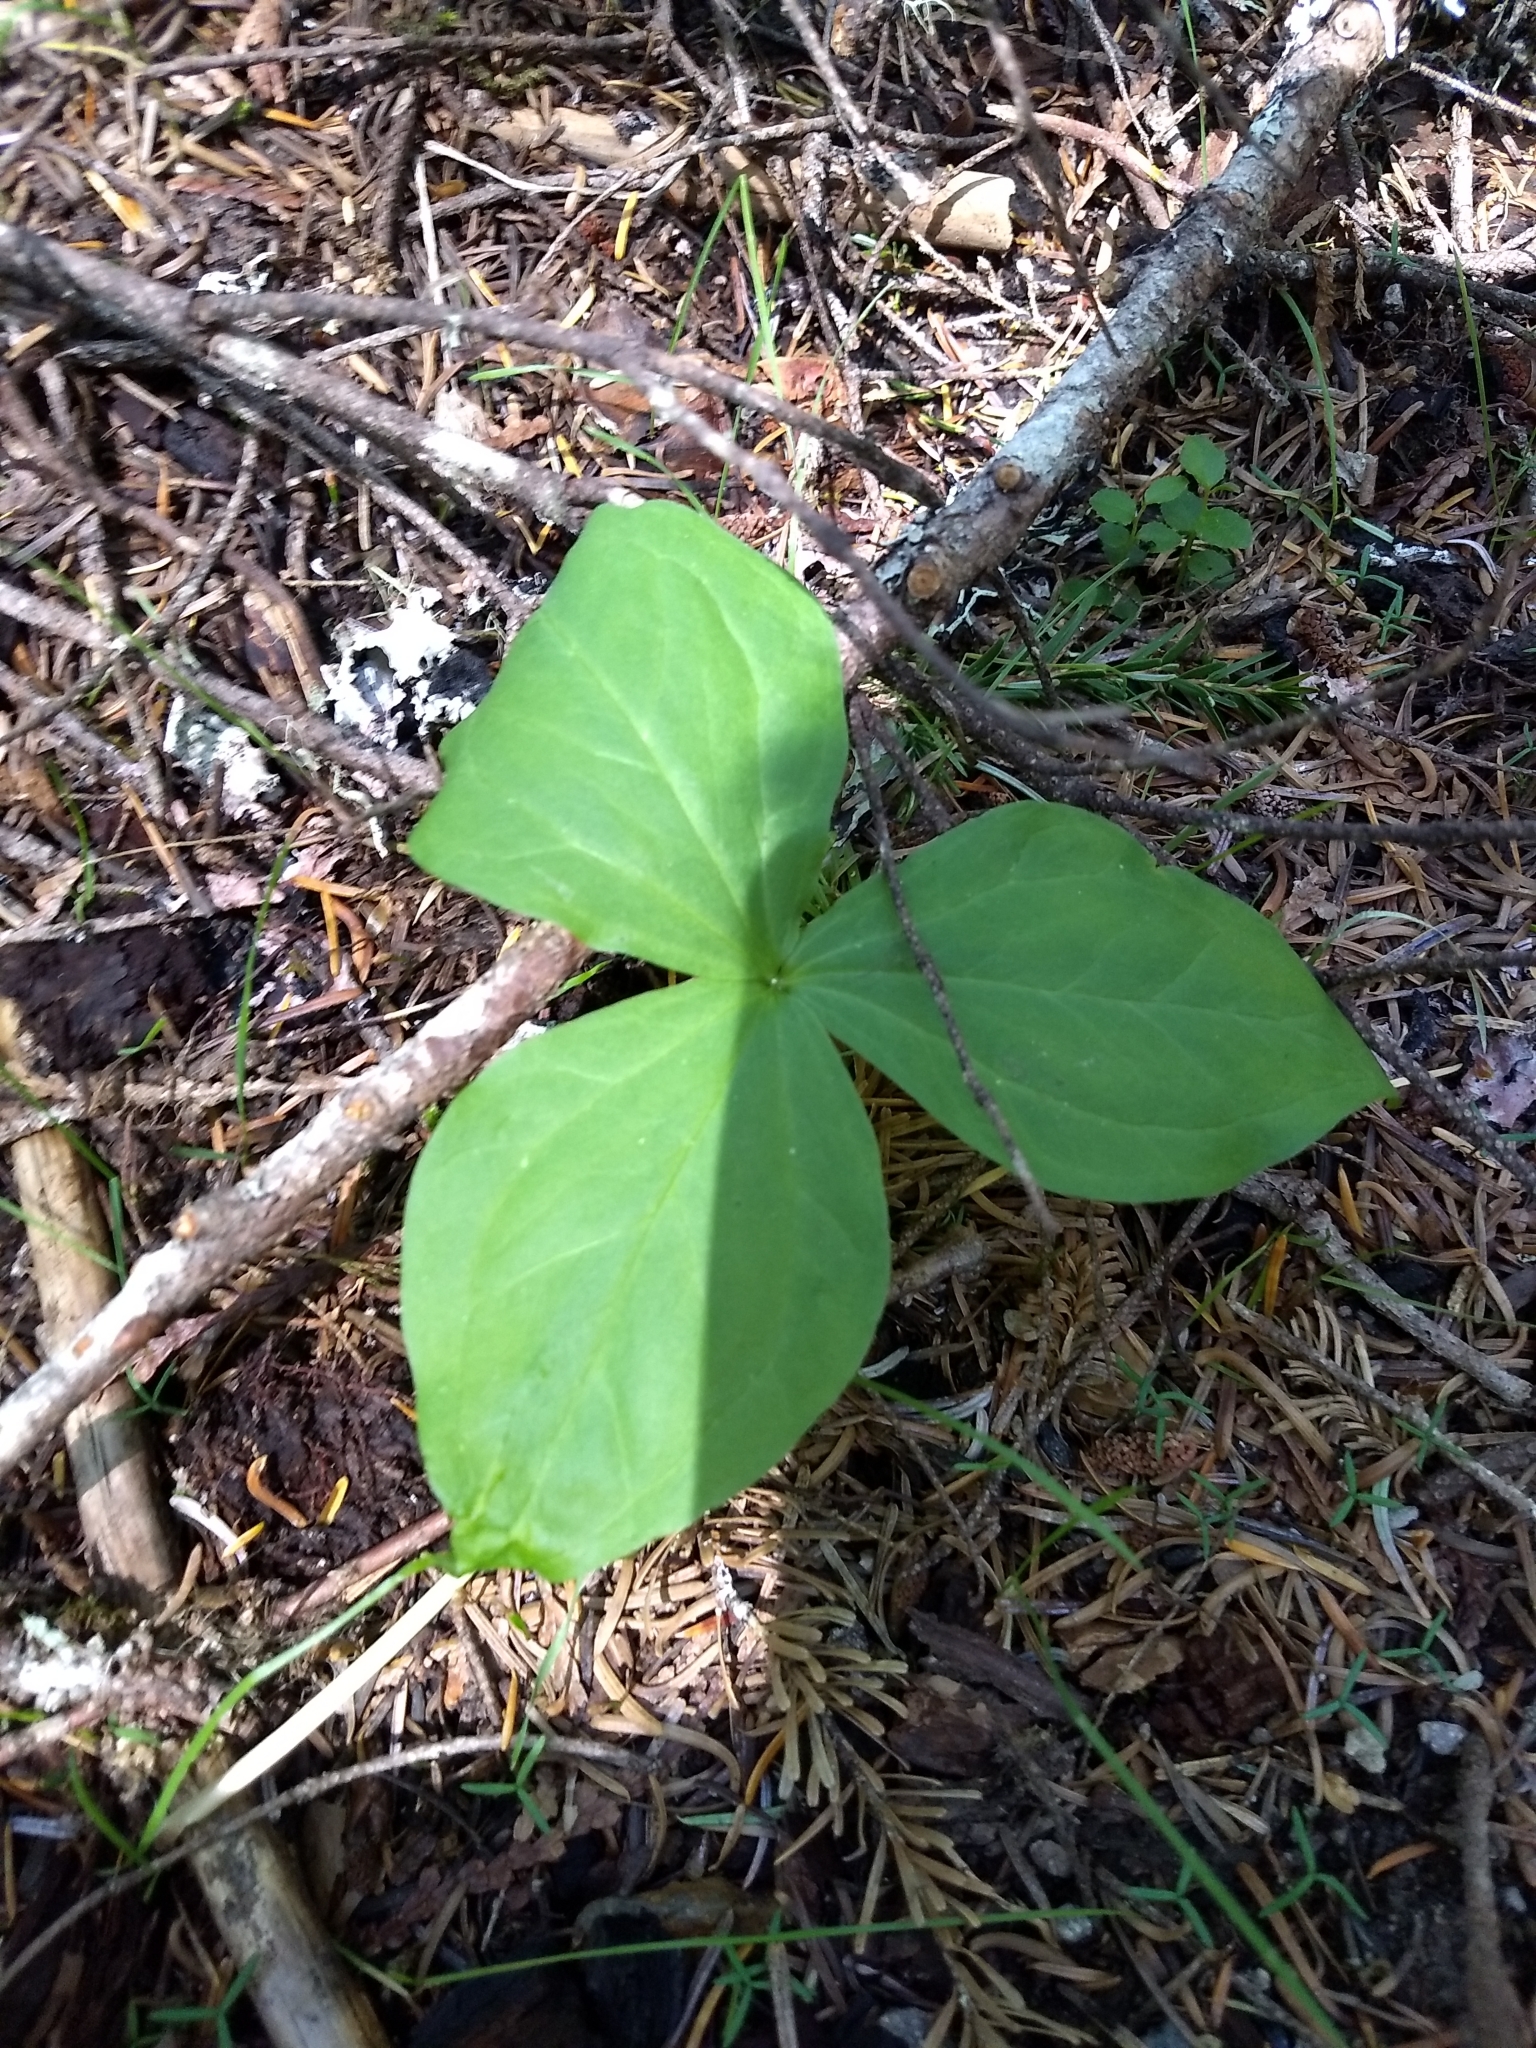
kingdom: Plantae
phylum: Tracheophyta
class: Liliopsida
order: Liliales
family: Melanthiaceae
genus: Trillium
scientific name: Trillium ovatum
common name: Pacific trillium
